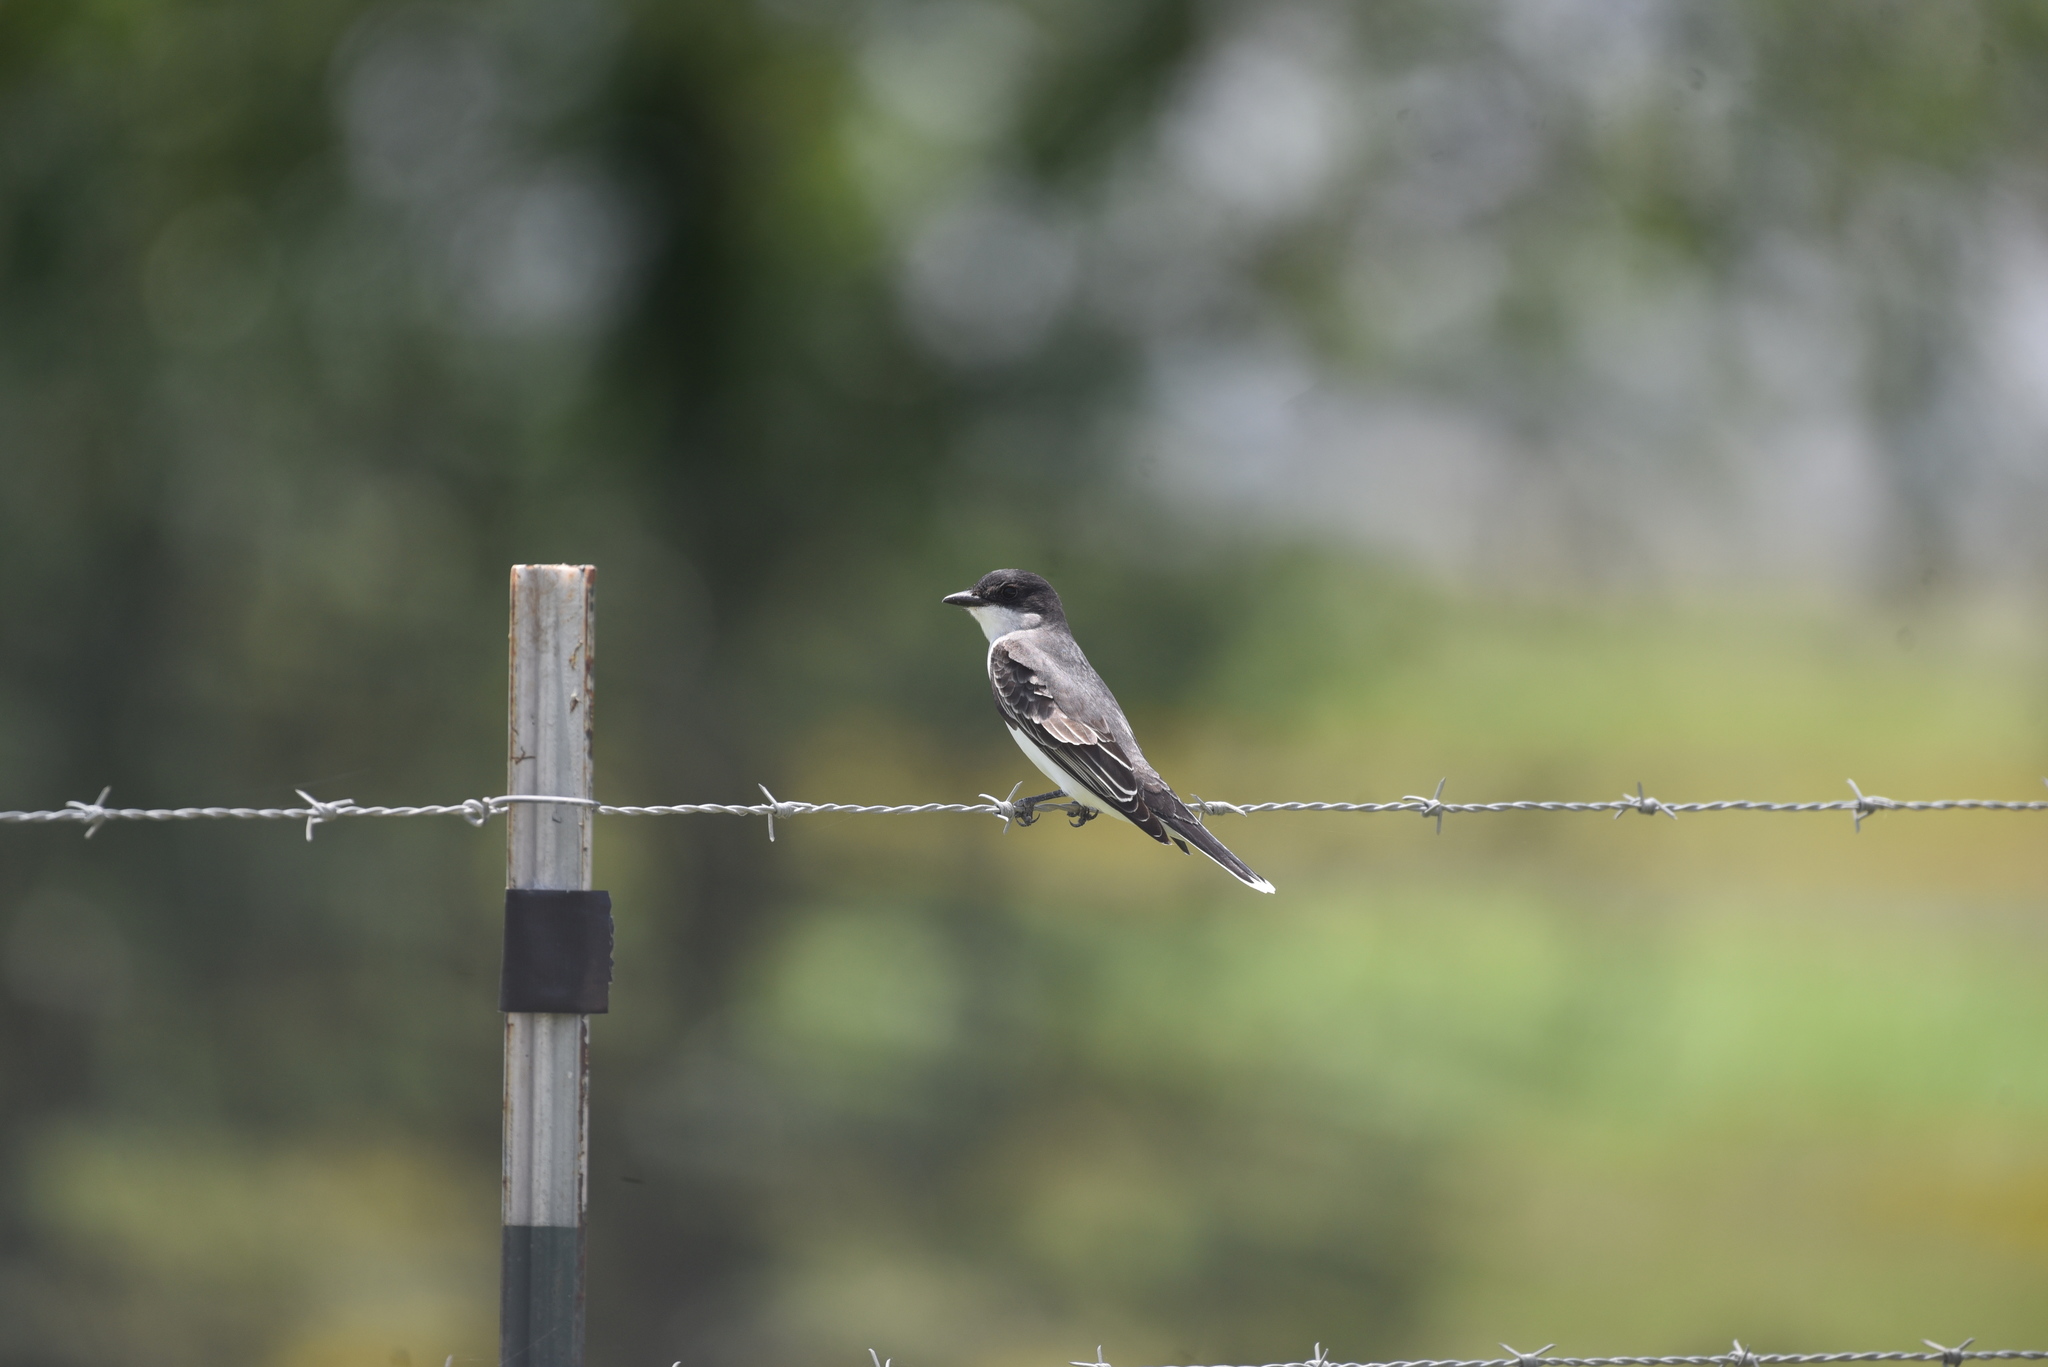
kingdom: Animalia
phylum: Chordata
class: Aves
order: Passeriformes
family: Tyrannidae
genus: Tyrannus
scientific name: Tyrannus tyrannus
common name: Eastern kingbird
